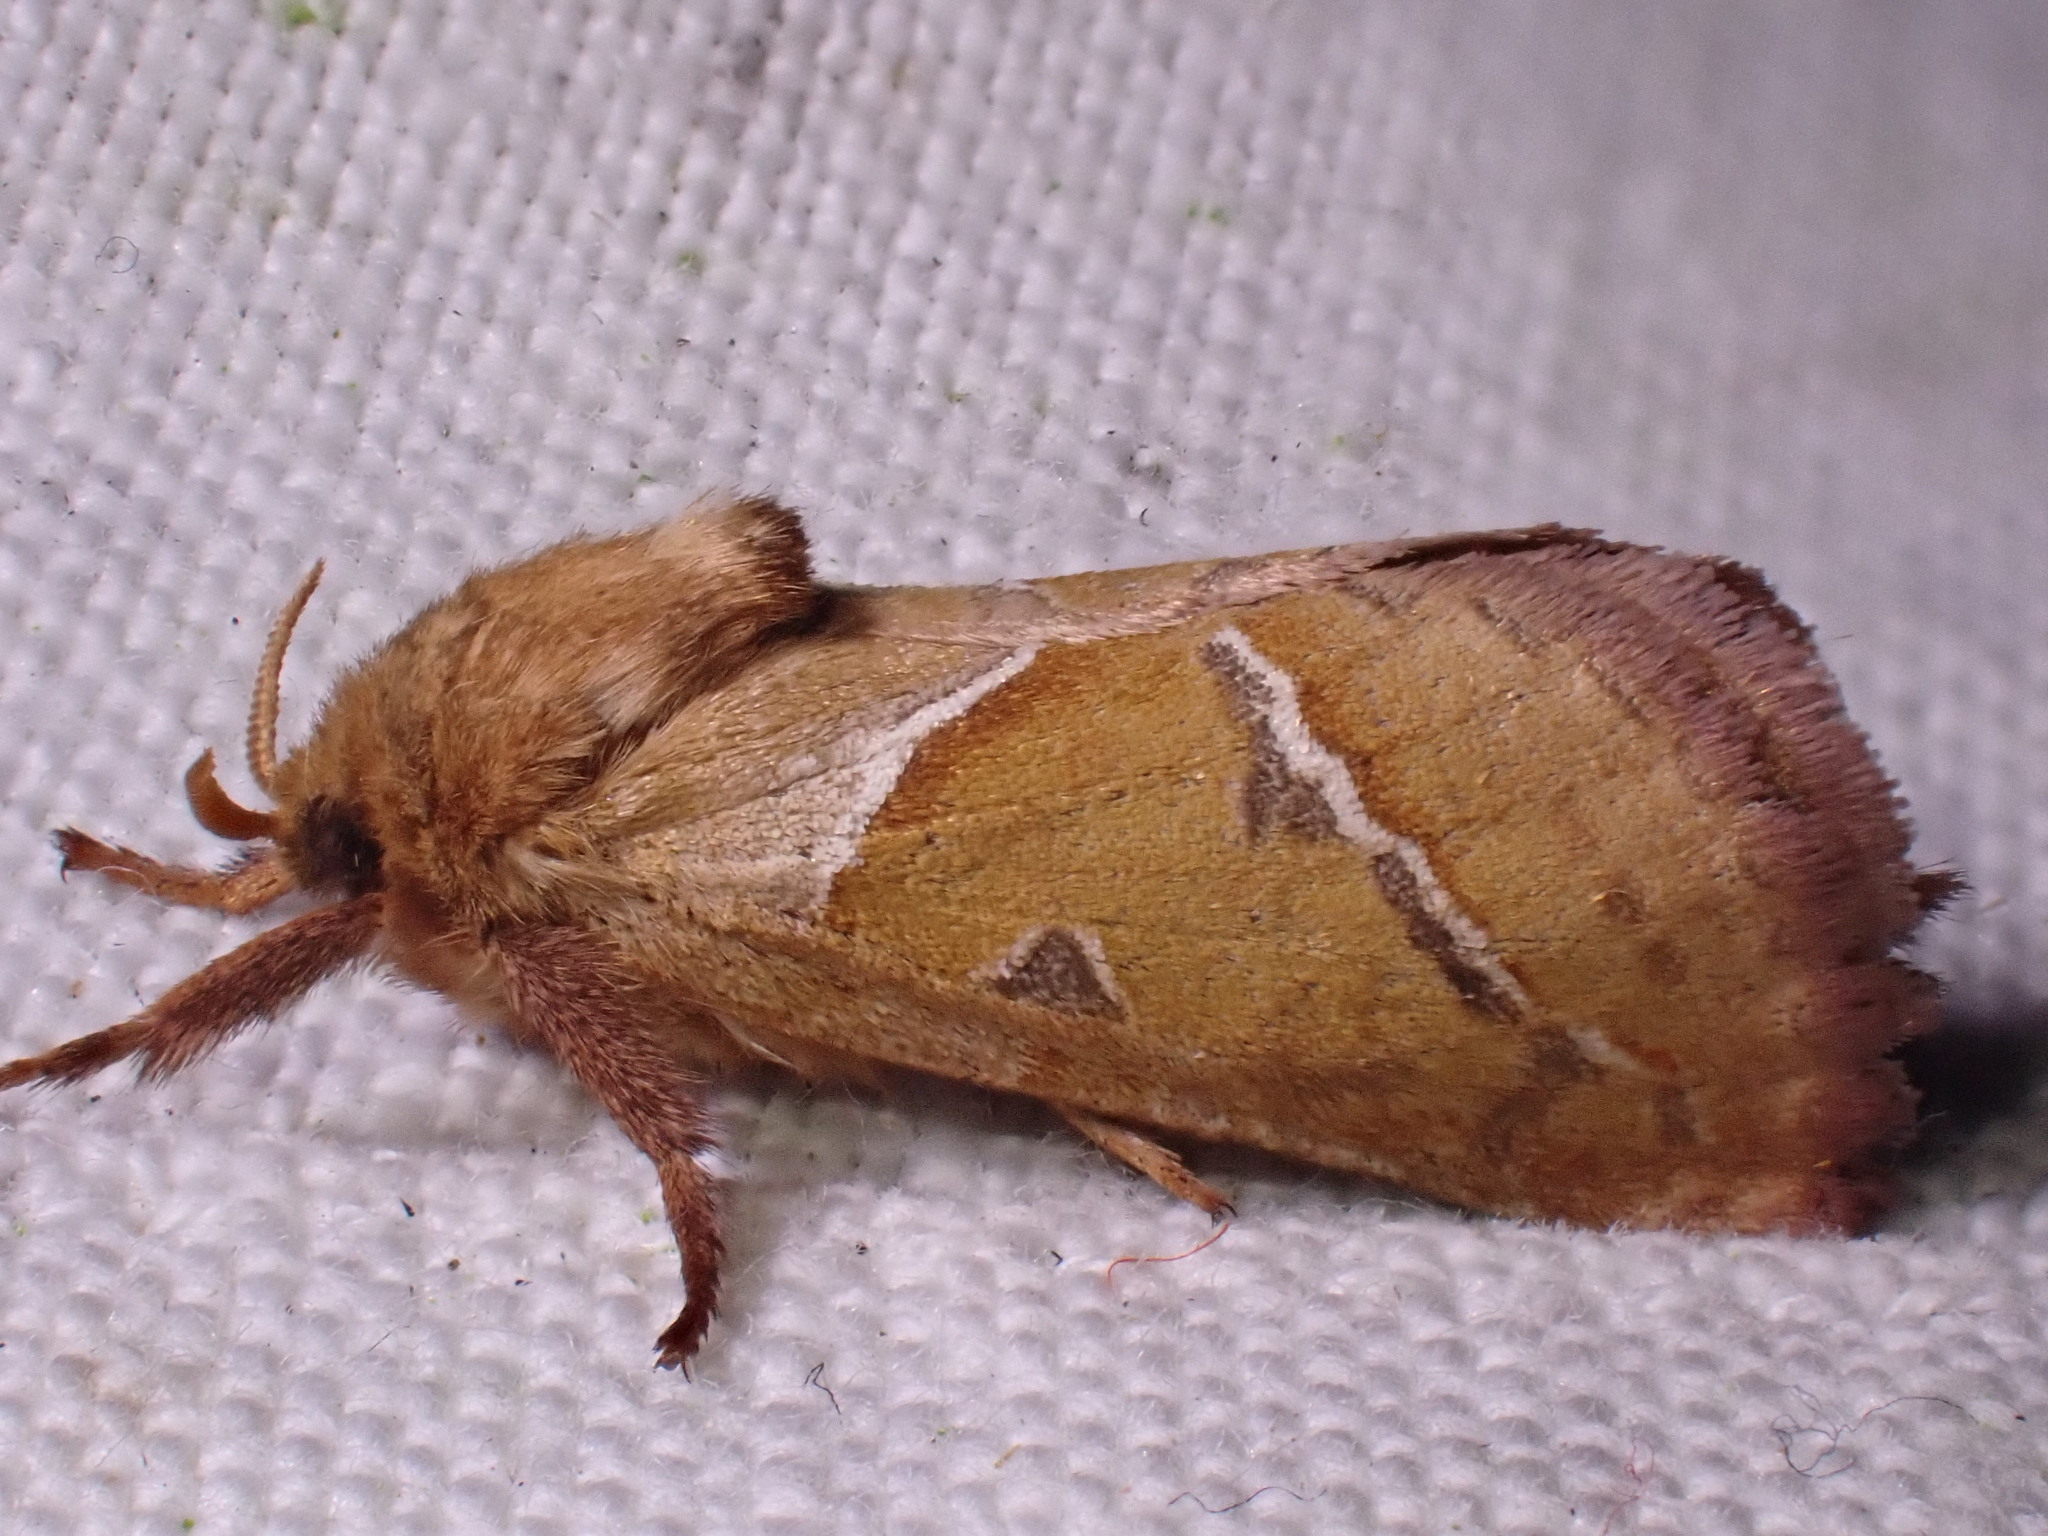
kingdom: Animalia
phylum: Arthropoda
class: Insecta
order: Lepidoptera
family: Hepialidae
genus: Triodia
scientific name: Triodia sylvina
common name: Orange swift
